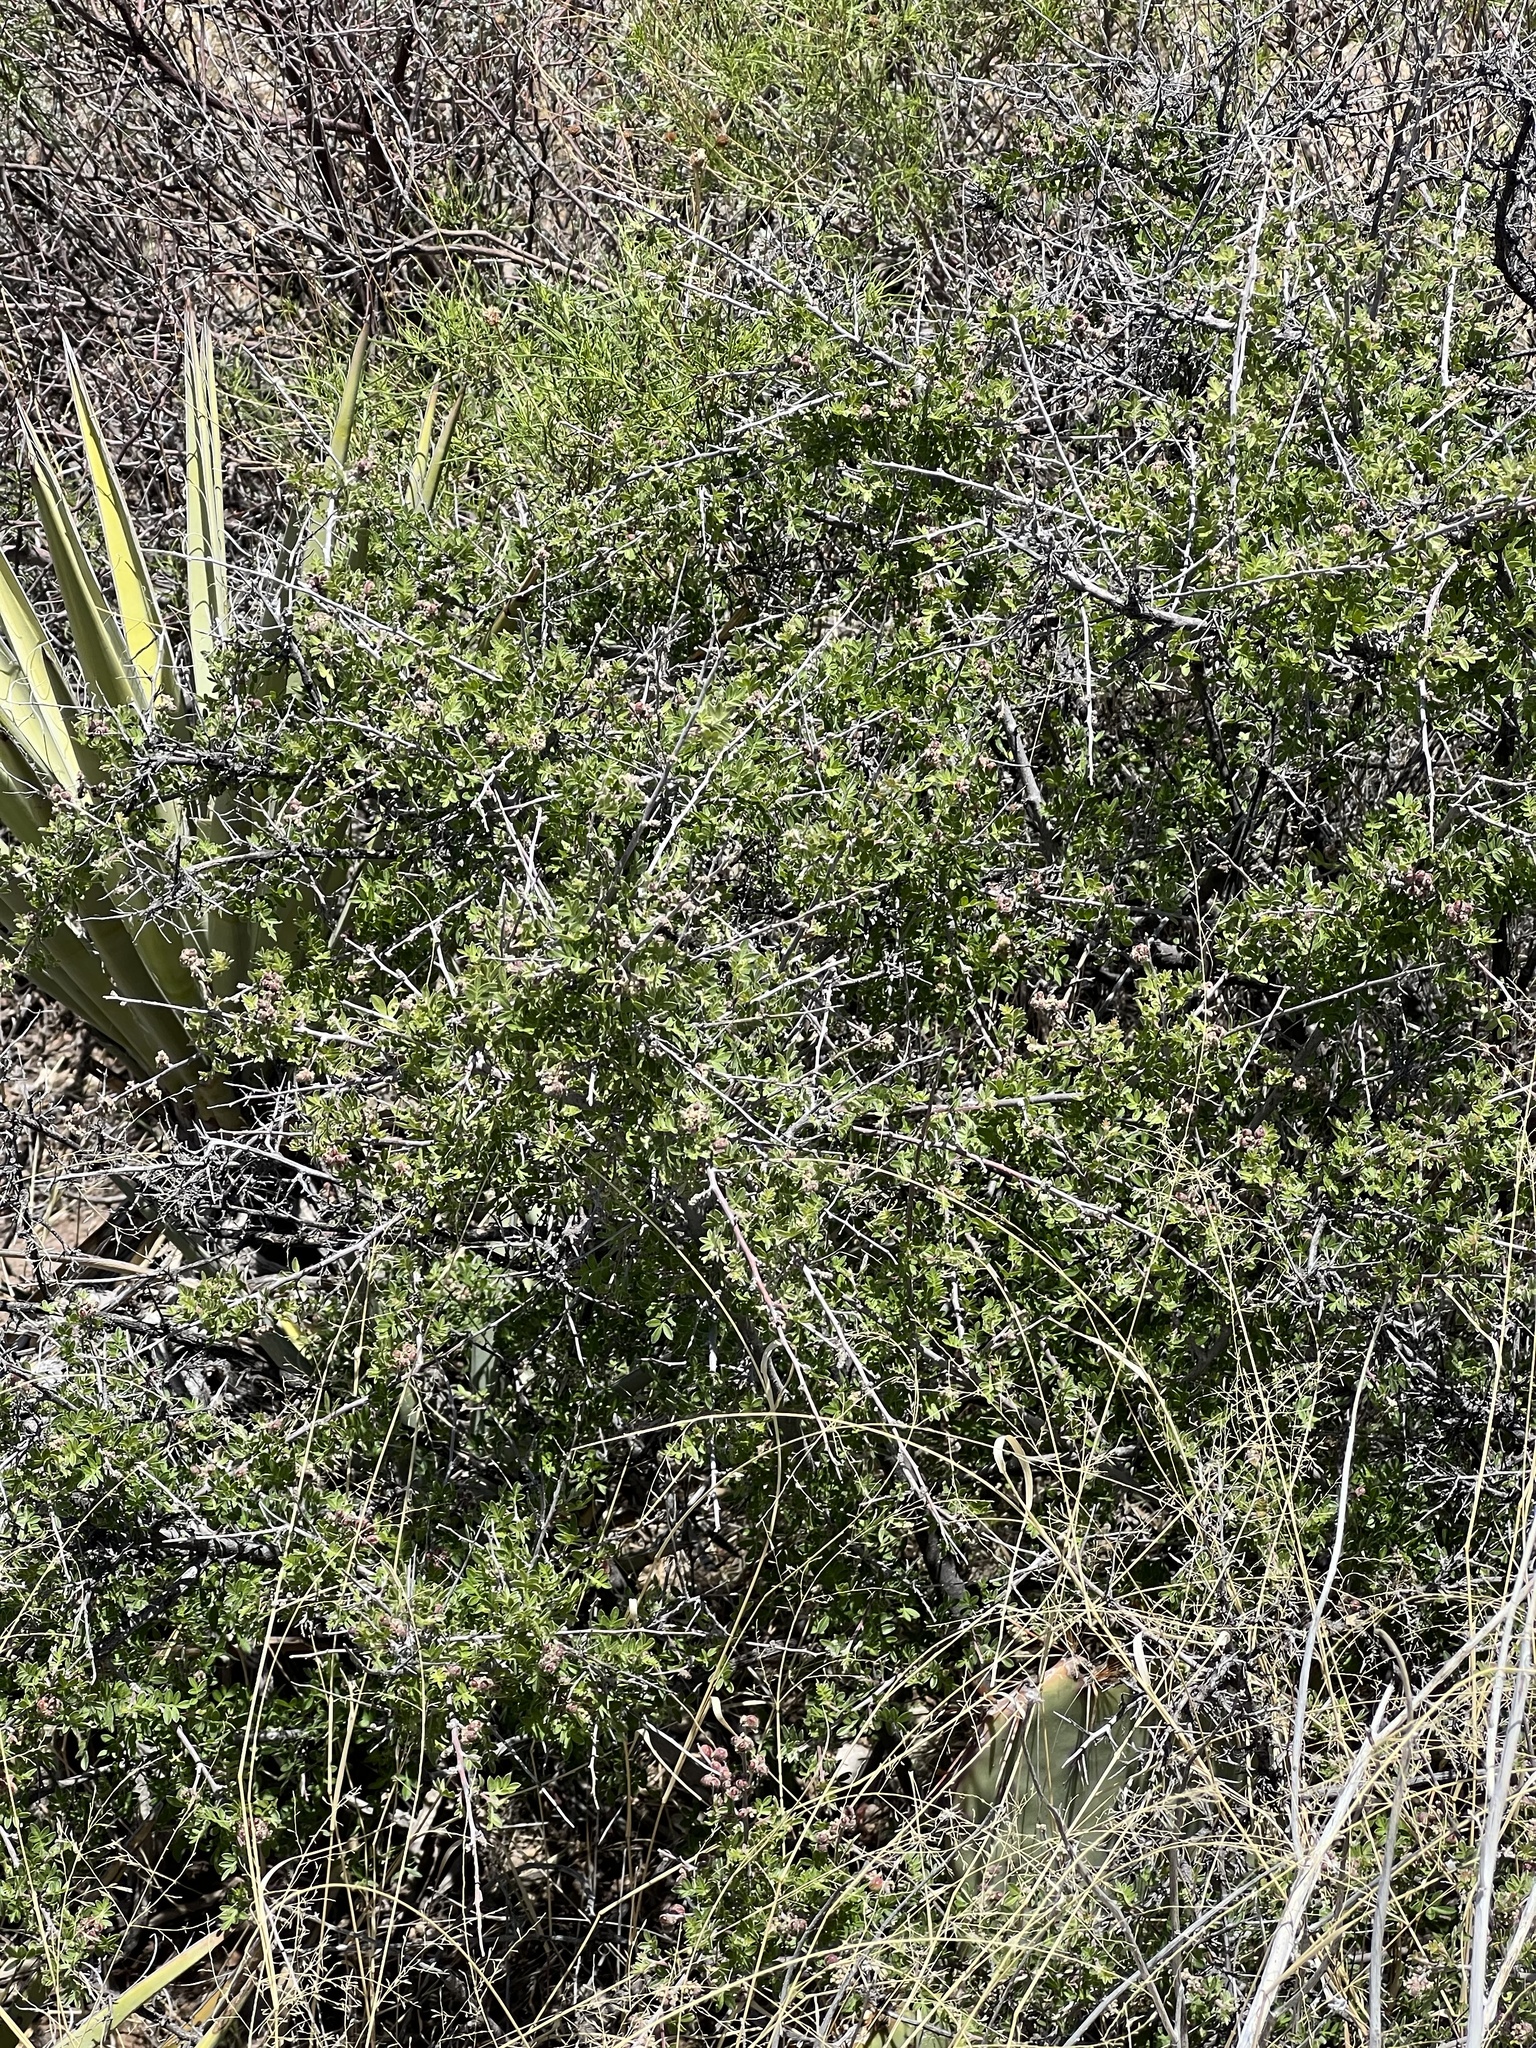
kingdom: Plantae
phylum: Tracheophyta
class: Magnoliopsida
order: Sapindales
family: Anacardiaceae
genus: Rhus
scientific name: Rhus microphylla
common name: Desert sumac
